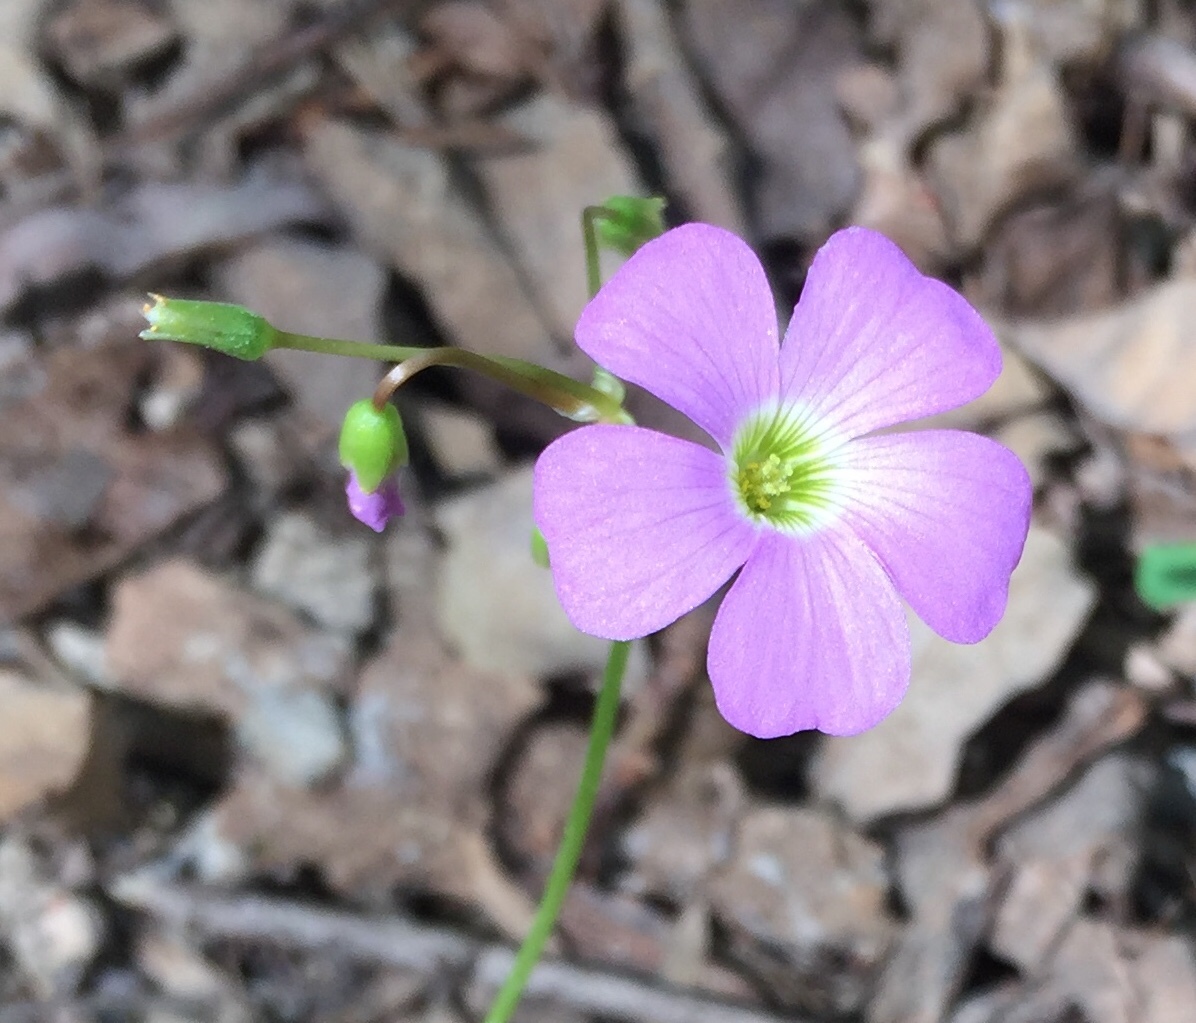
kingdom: Plantae
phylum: Tracheophyta
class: Magnoliopsida
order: Oxalidales
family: Oxalidaceae
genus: Oxalis
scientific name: Oxalis violacea
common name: Violet wood-sorrel
